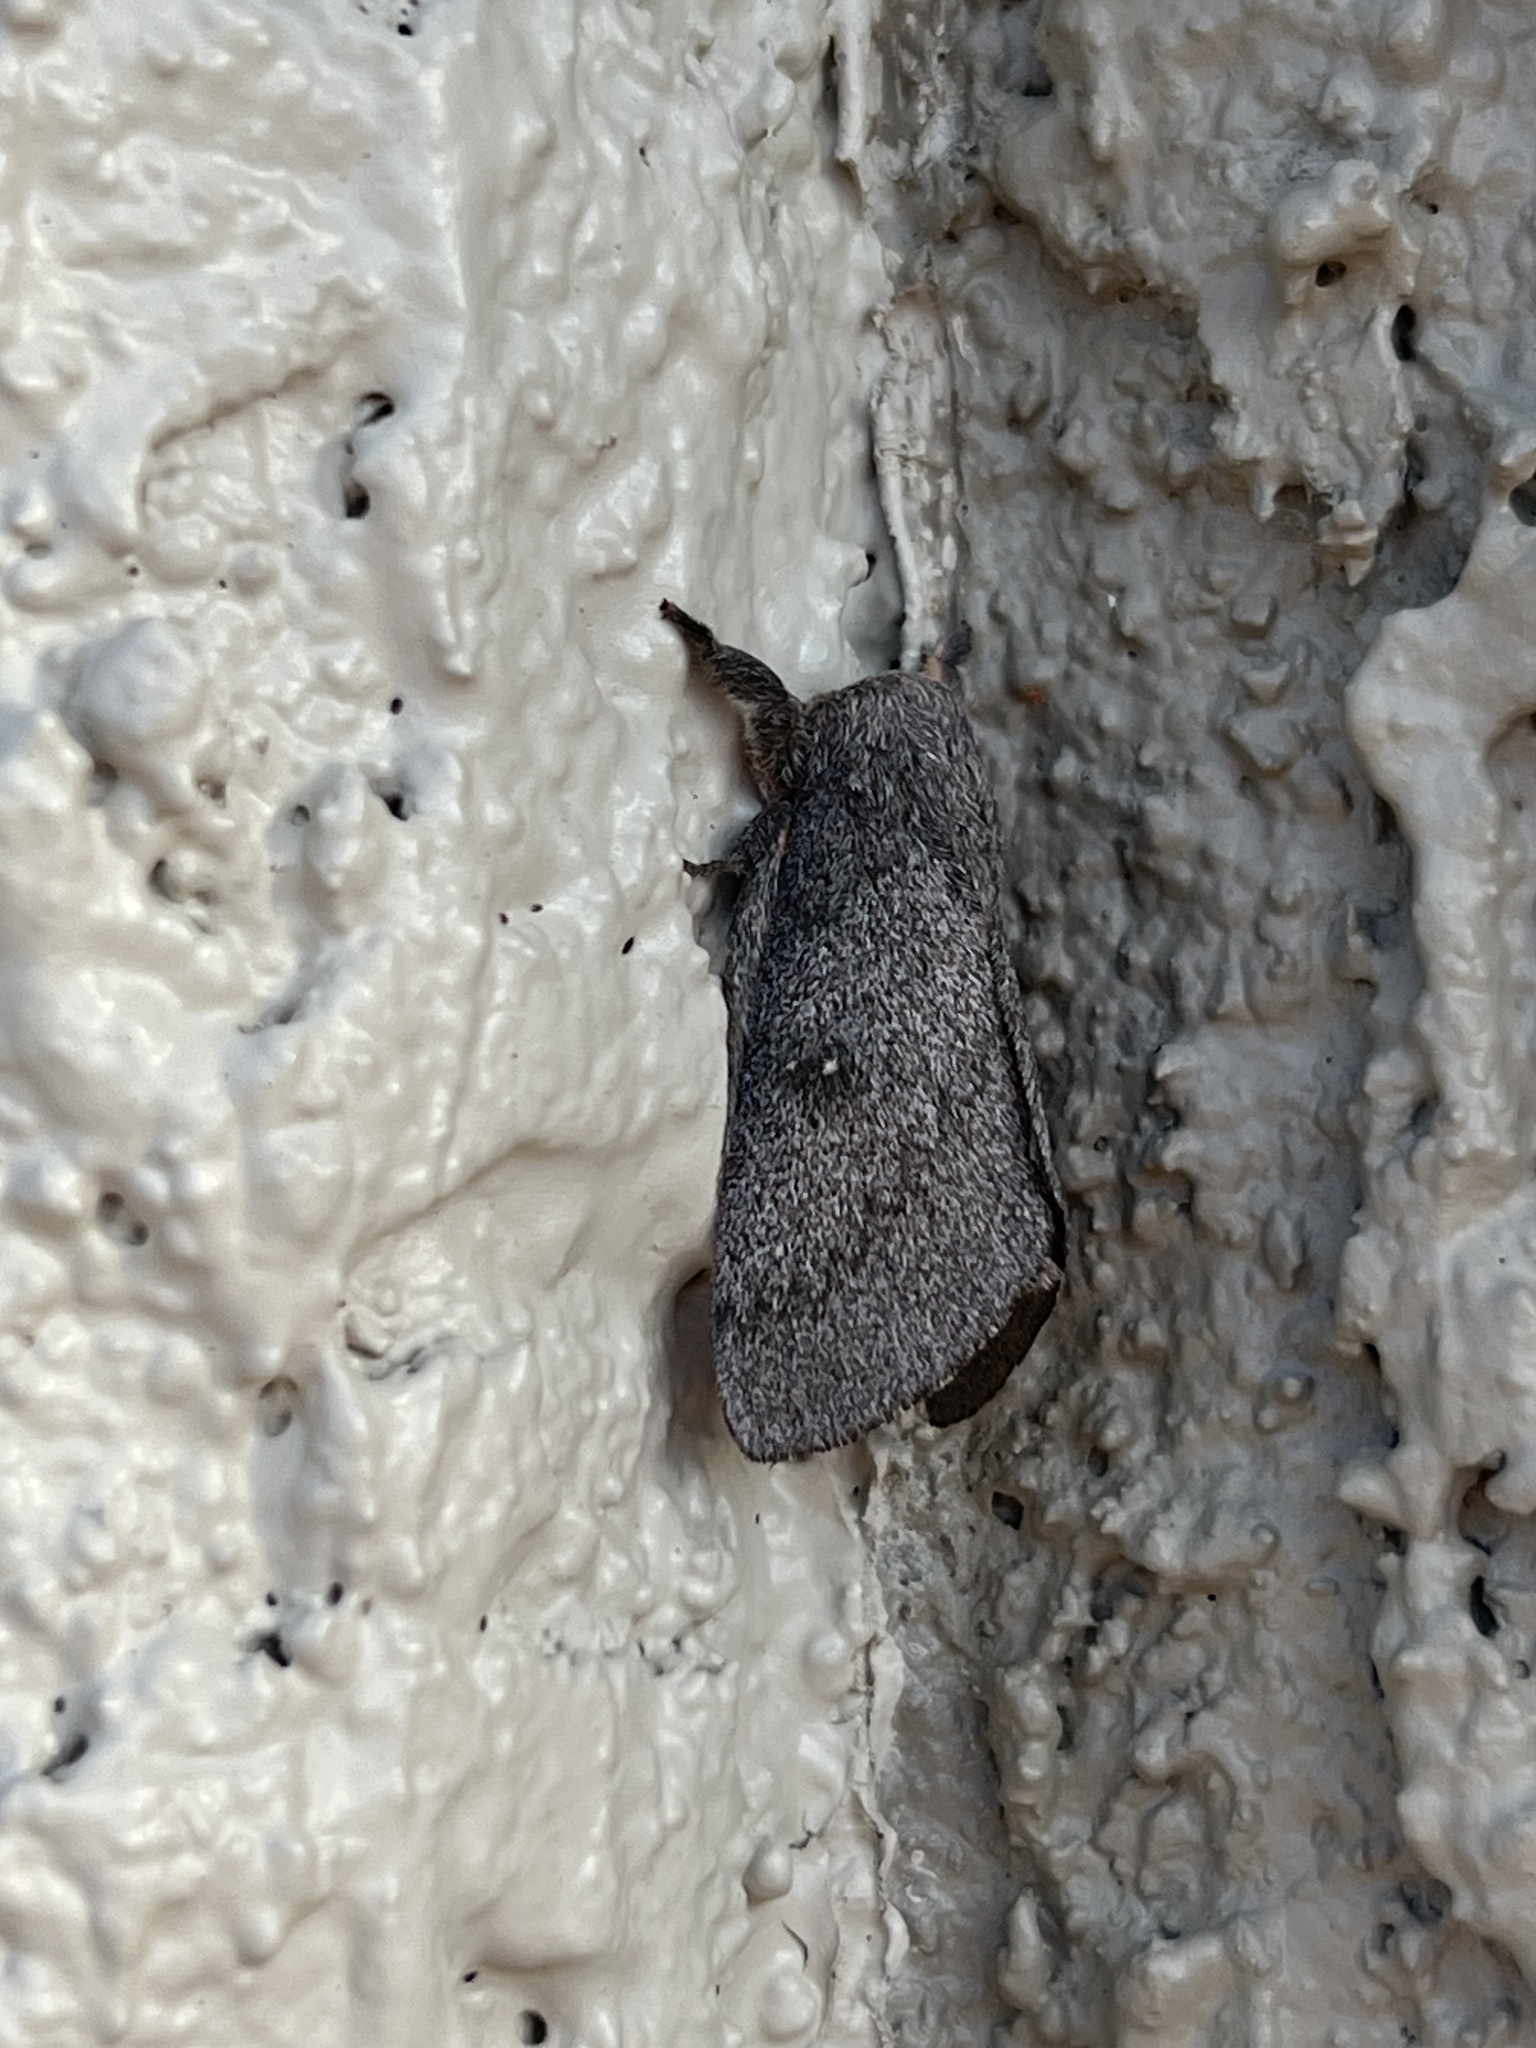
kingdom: Animalia
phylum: Arthropoda
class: Insecta
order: Lepidoptera
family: Saturniidae
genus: Syssphinx
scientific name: Syssphinx hubbardi
